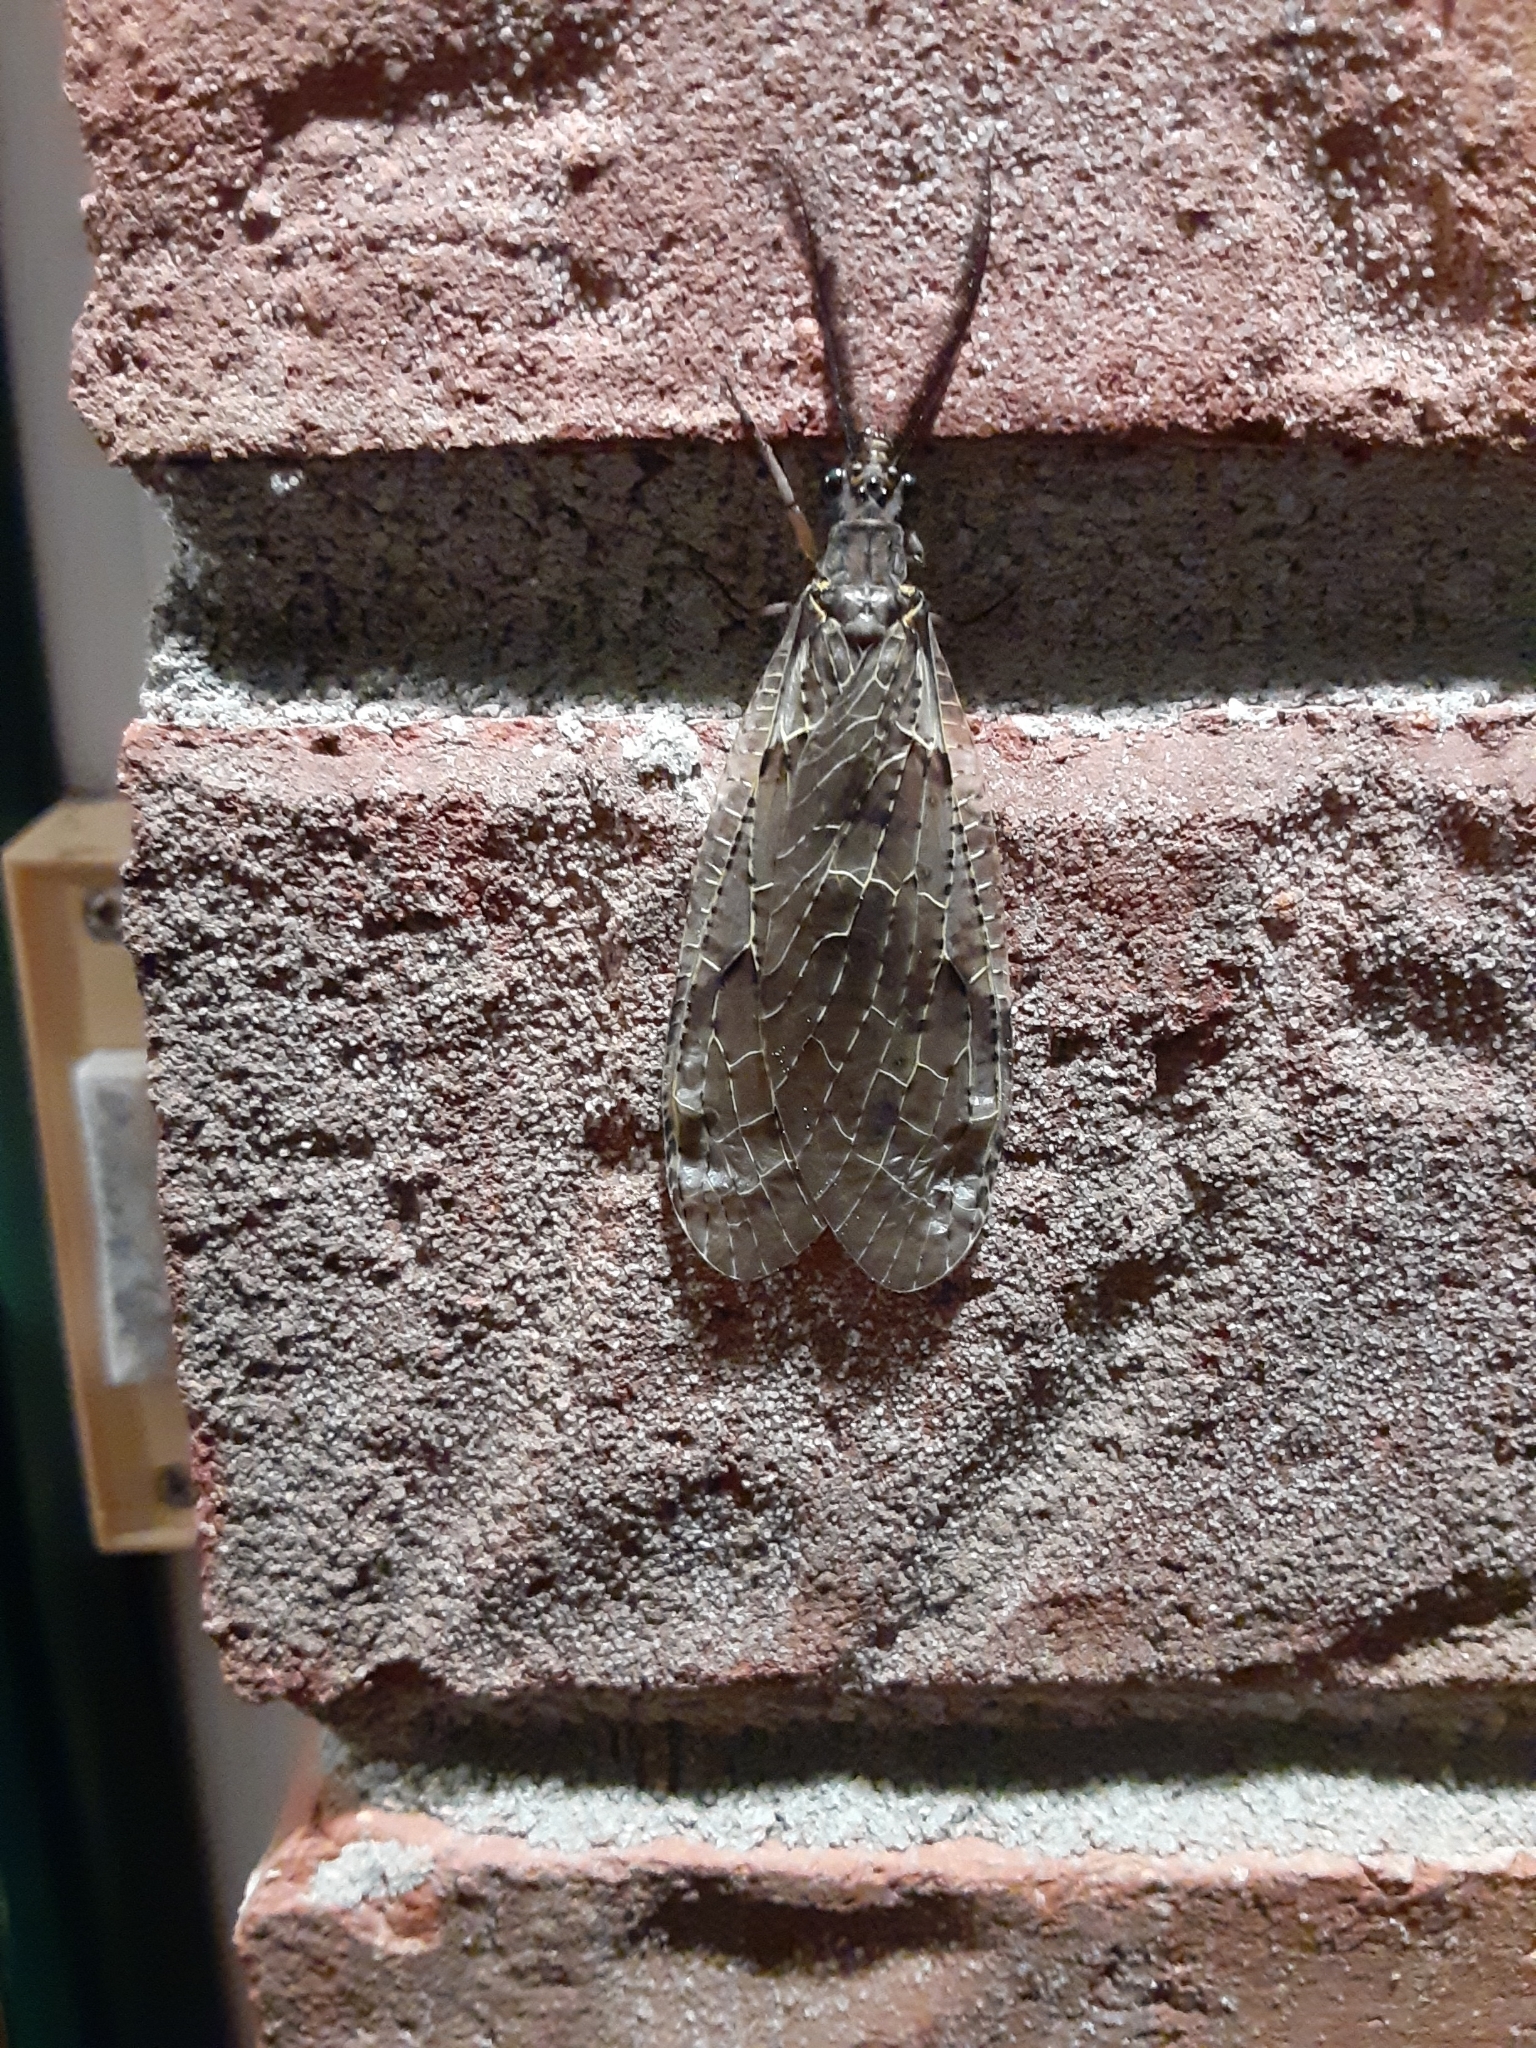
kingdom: Animalia
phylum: Arthropoda
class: Insecta
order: Megaloptera
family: Corydalidae
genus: Chauliodes
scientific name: Chauliodes rastricornis
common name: Spring fishfly
